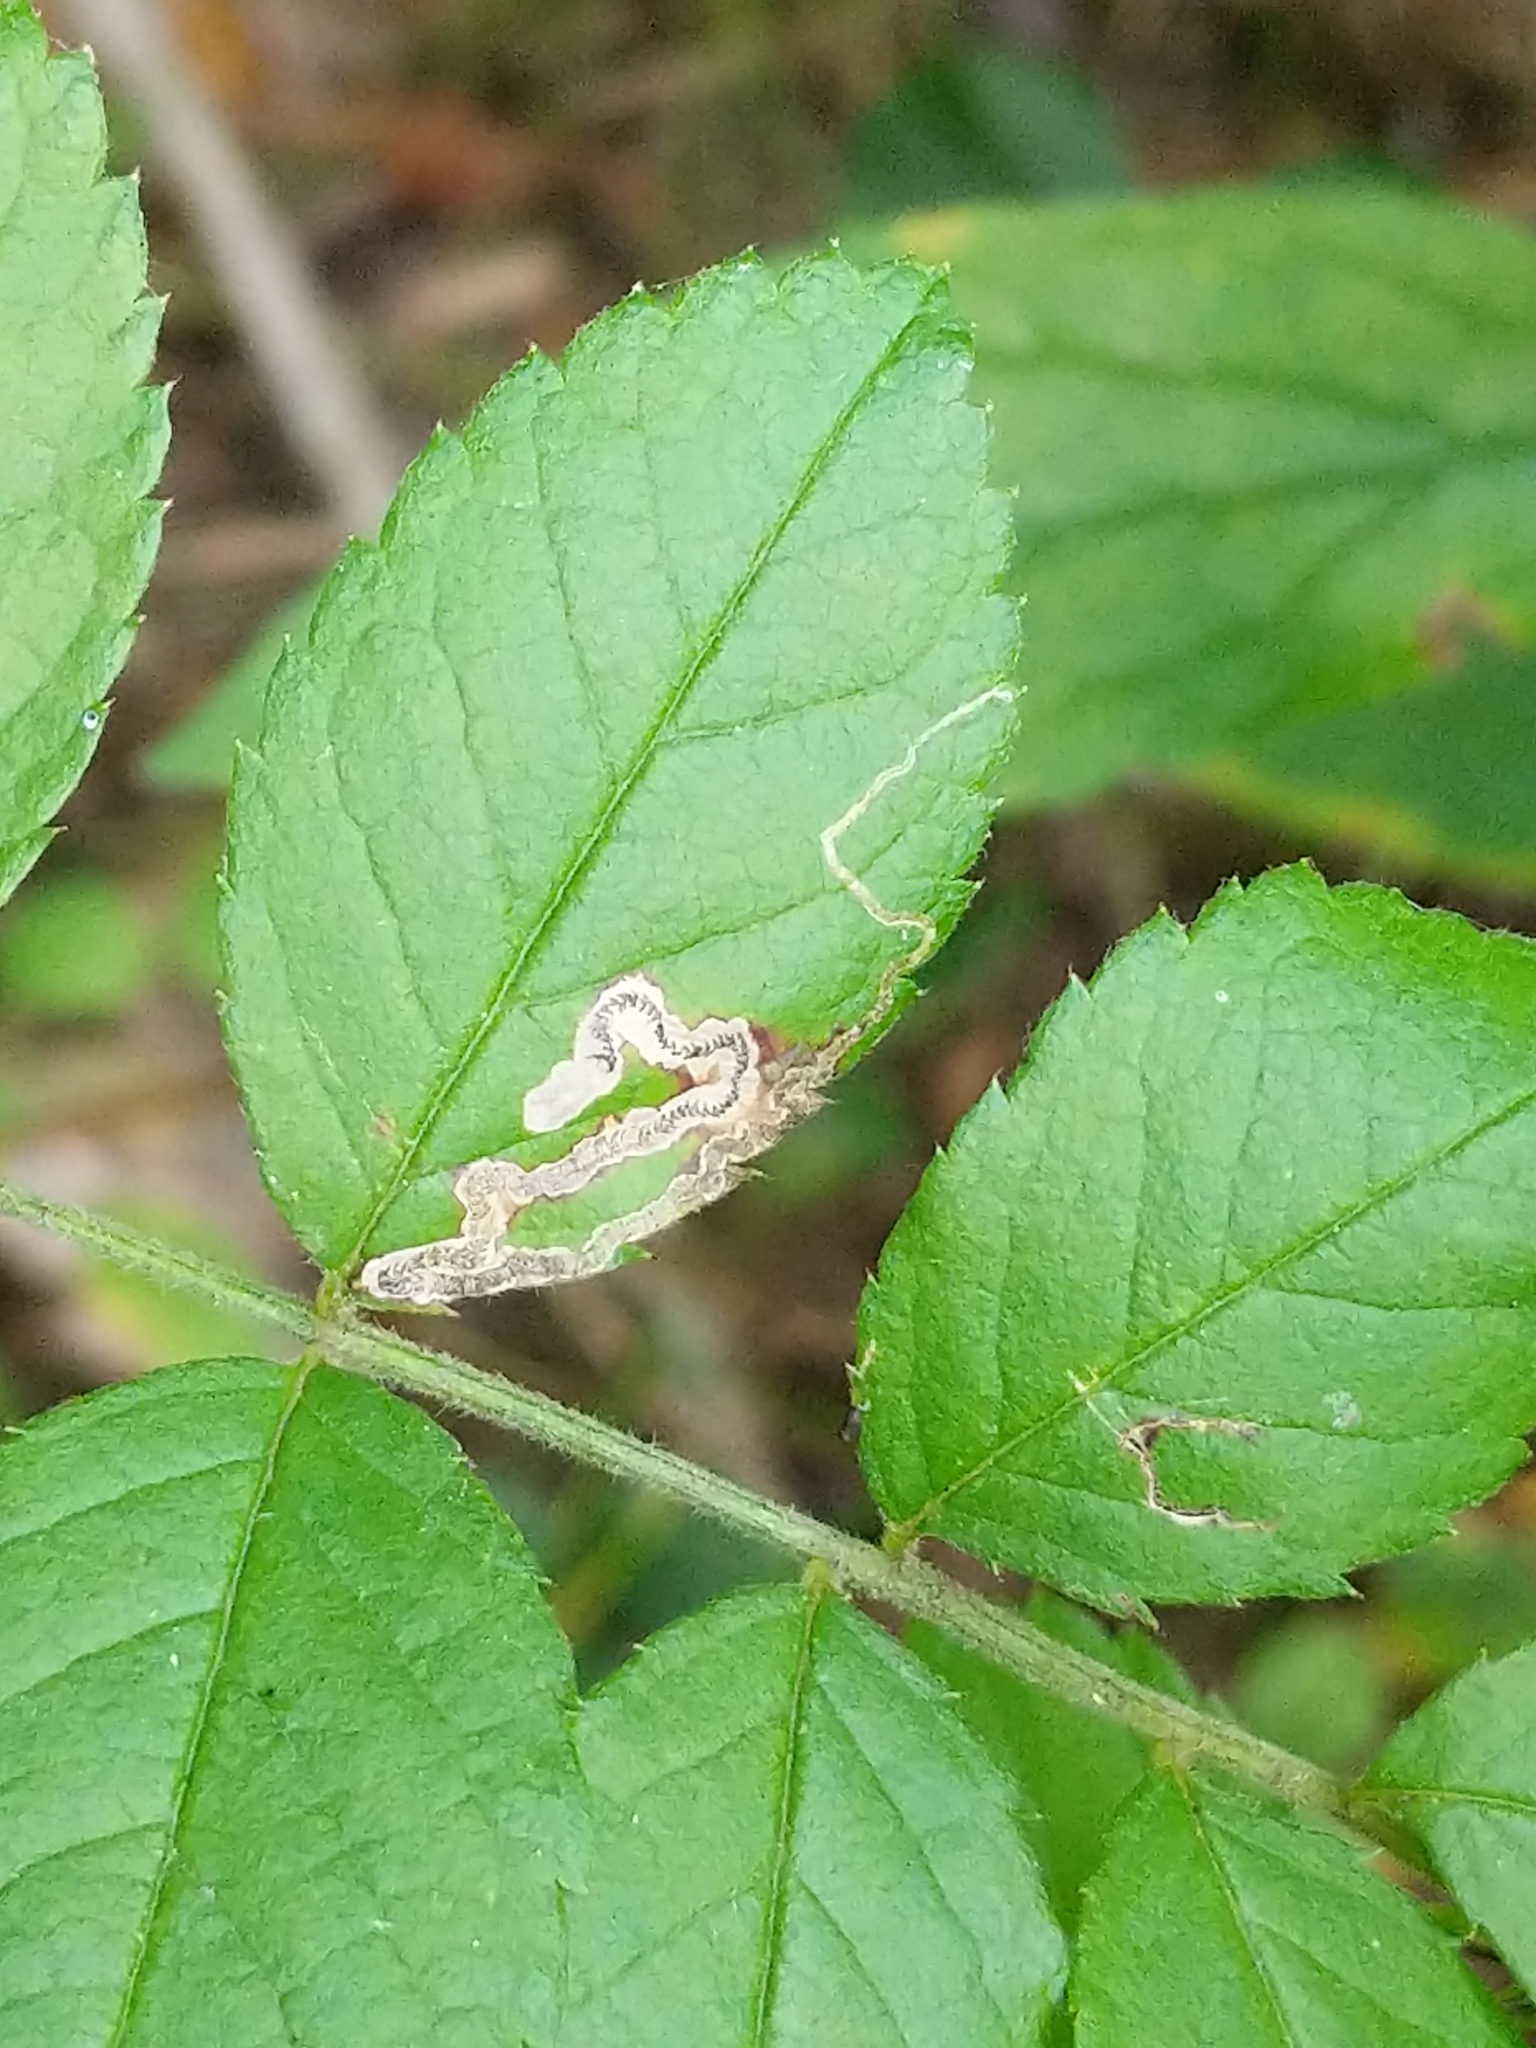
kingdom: Animalia
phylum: Arthropoda
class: Insecta
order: Lepidoptera
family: Nepticulidae
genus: Stigmella
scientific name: Stigmella rosaefoliella
